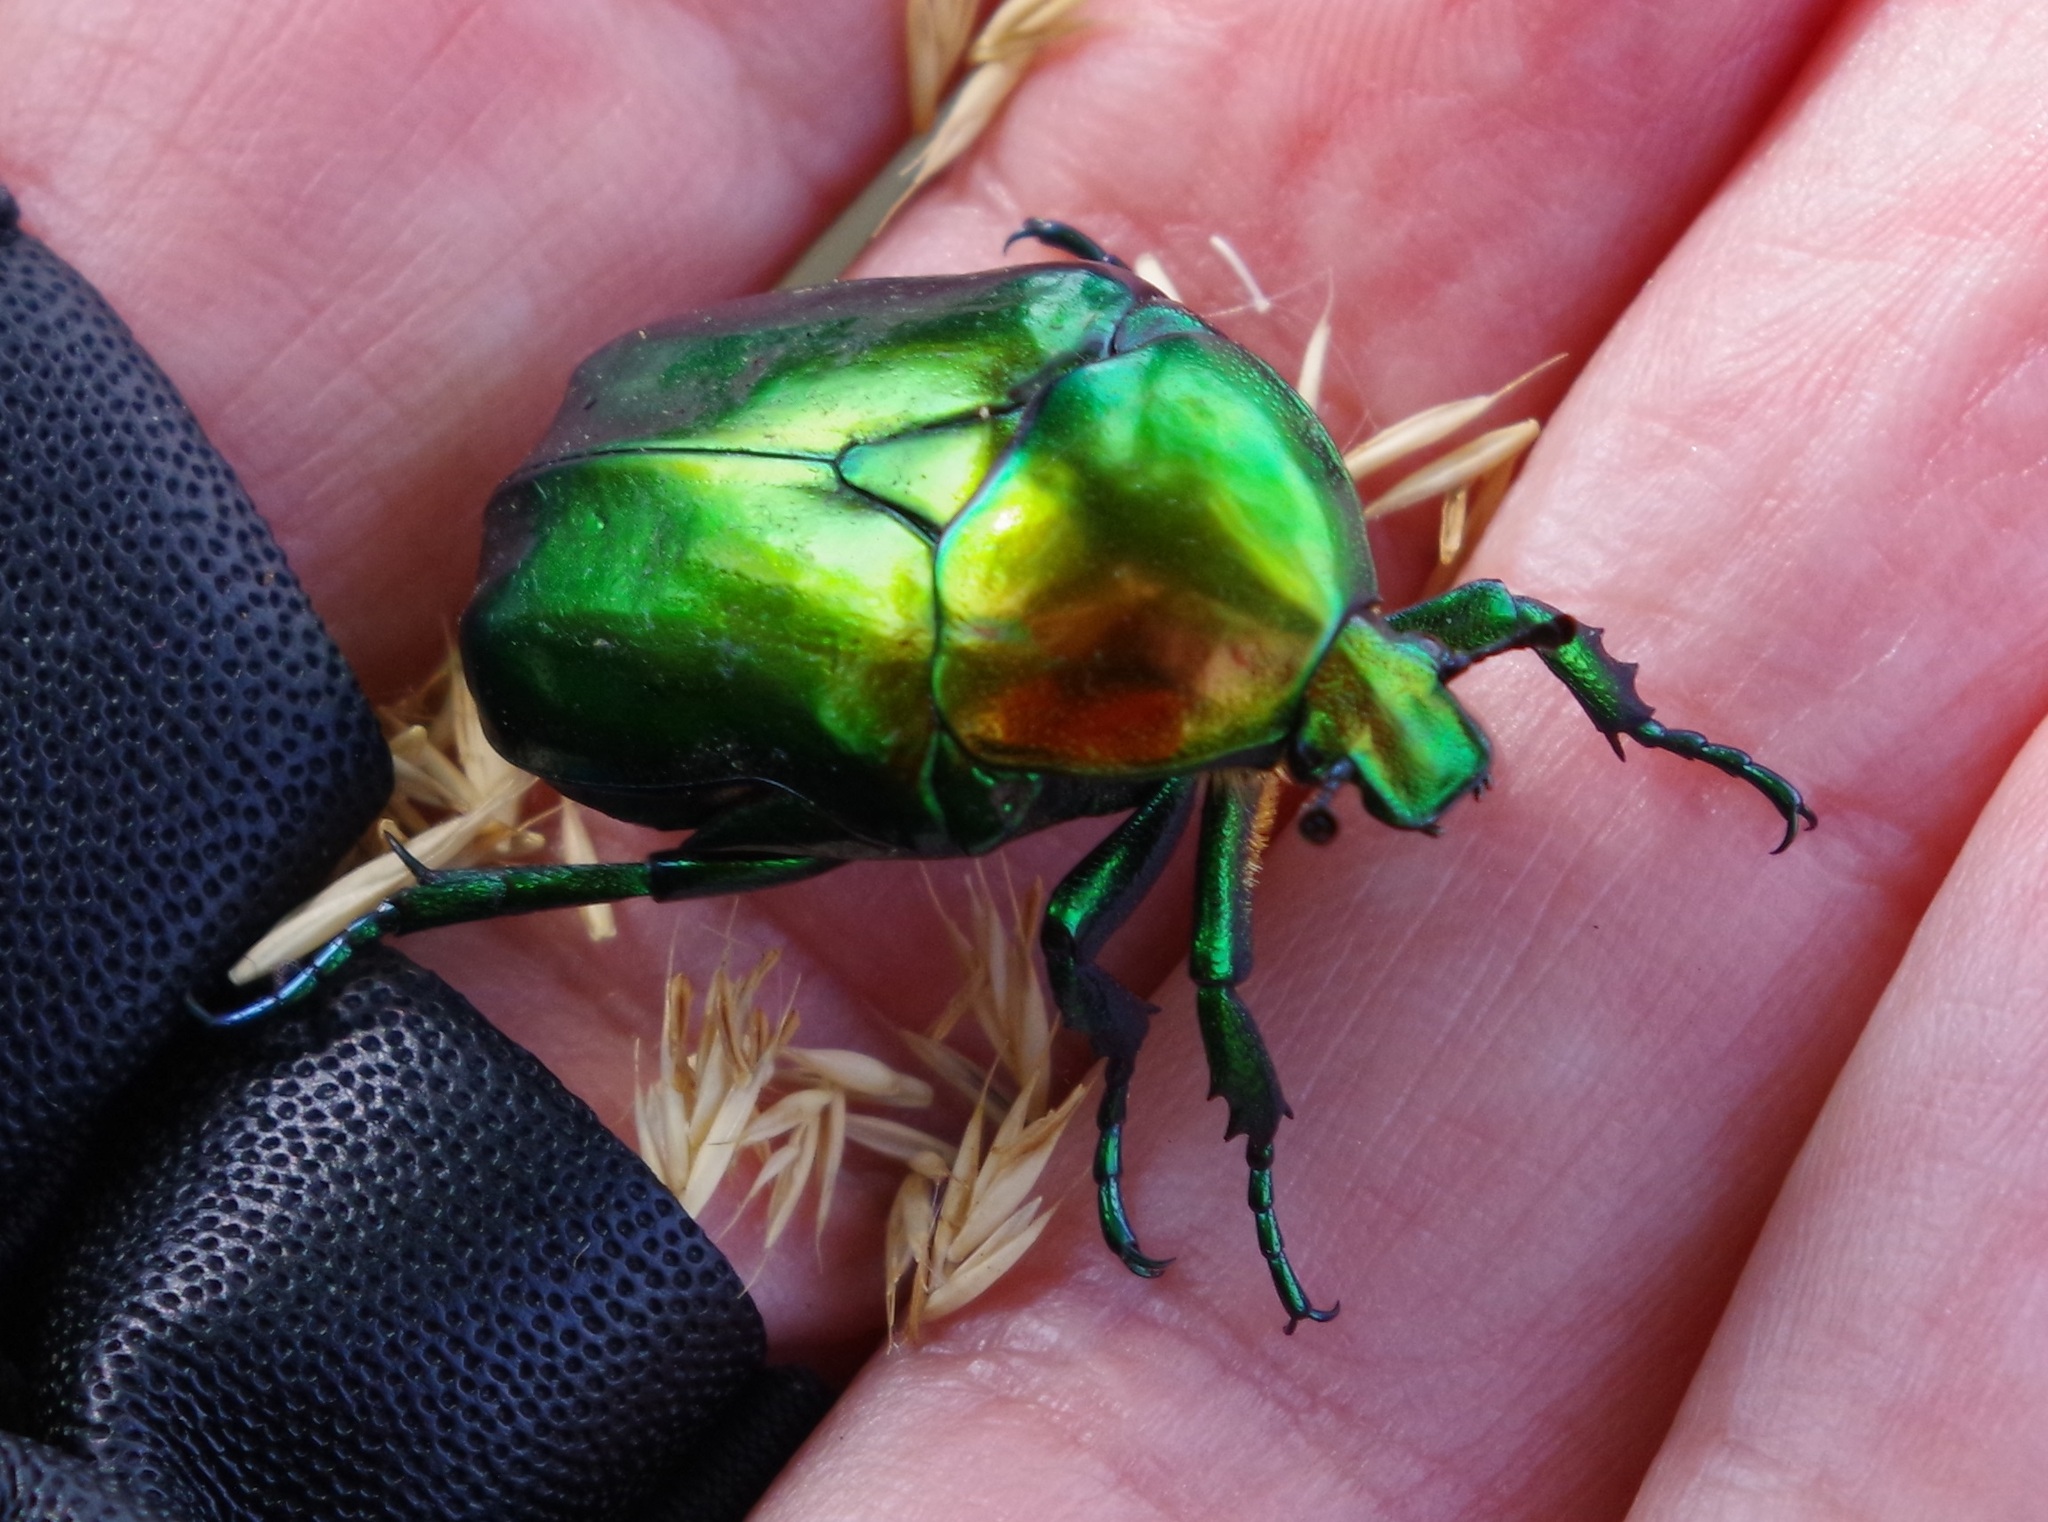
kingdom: Animalia
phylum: Arthropoda
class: Insecta
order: Coleoptera
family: Scarabaeidae
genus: Protaetia
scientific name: Protaetia speciosissima
